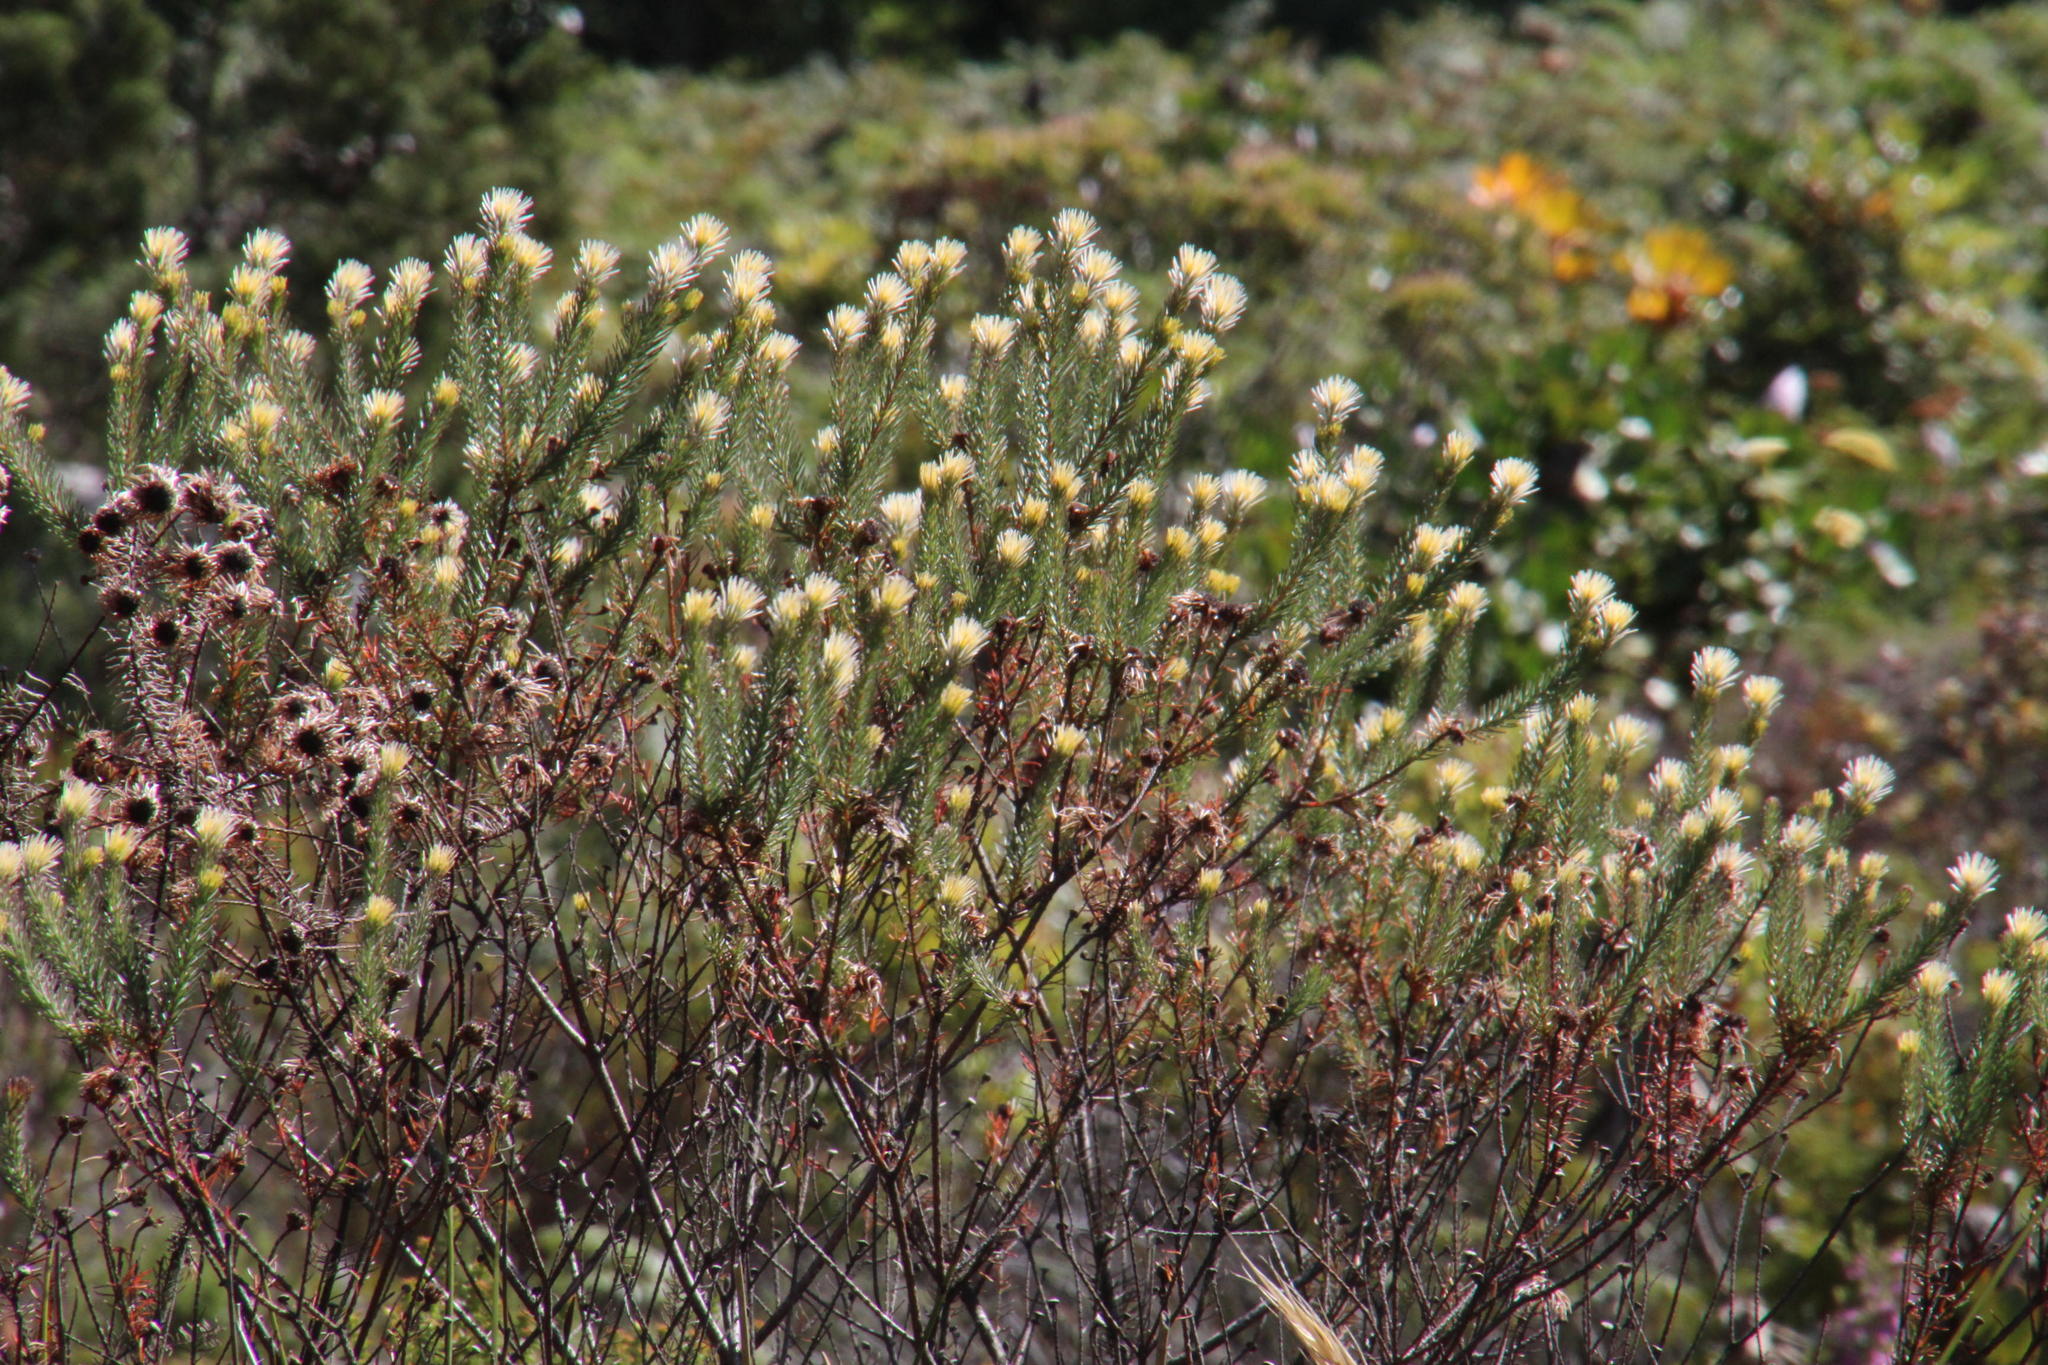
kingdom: Plantae
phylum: Tracheophyta
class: Magnoliopsida
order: Bruniales
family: Bruniaceae
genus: Staavia
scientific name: Staavia glutinosa
